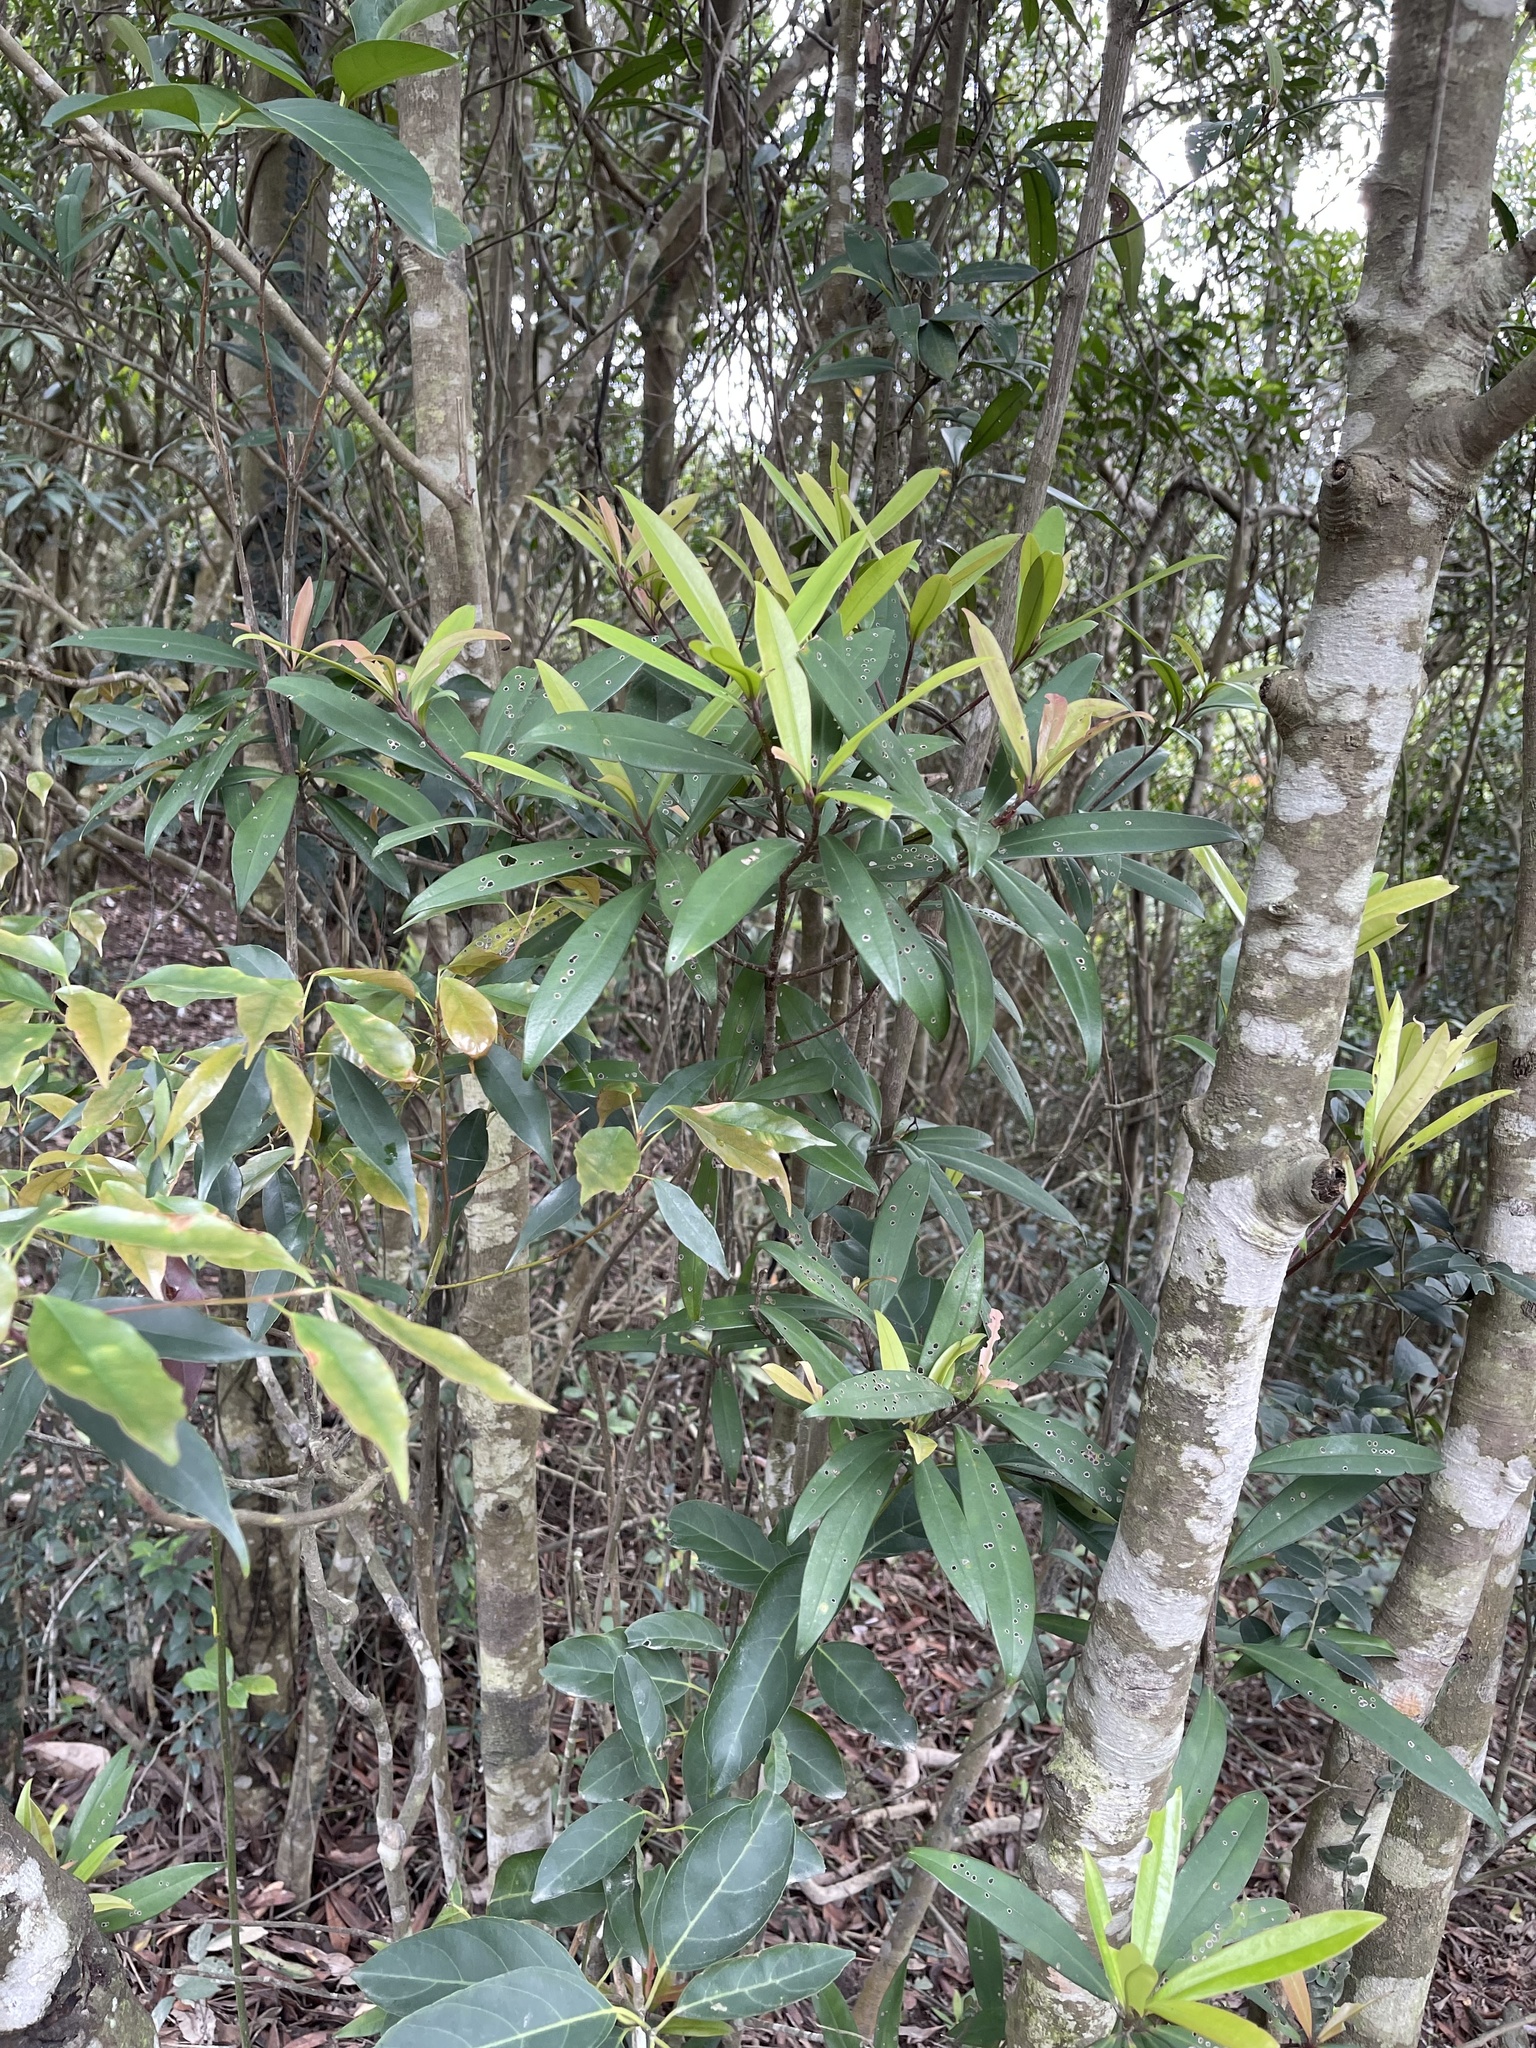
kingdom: Plantae
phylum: Tracheophyta
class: Magnoliopsida
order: Ericales
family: Primulaceae
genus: Myrsine
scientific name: Myrsine seguinii
